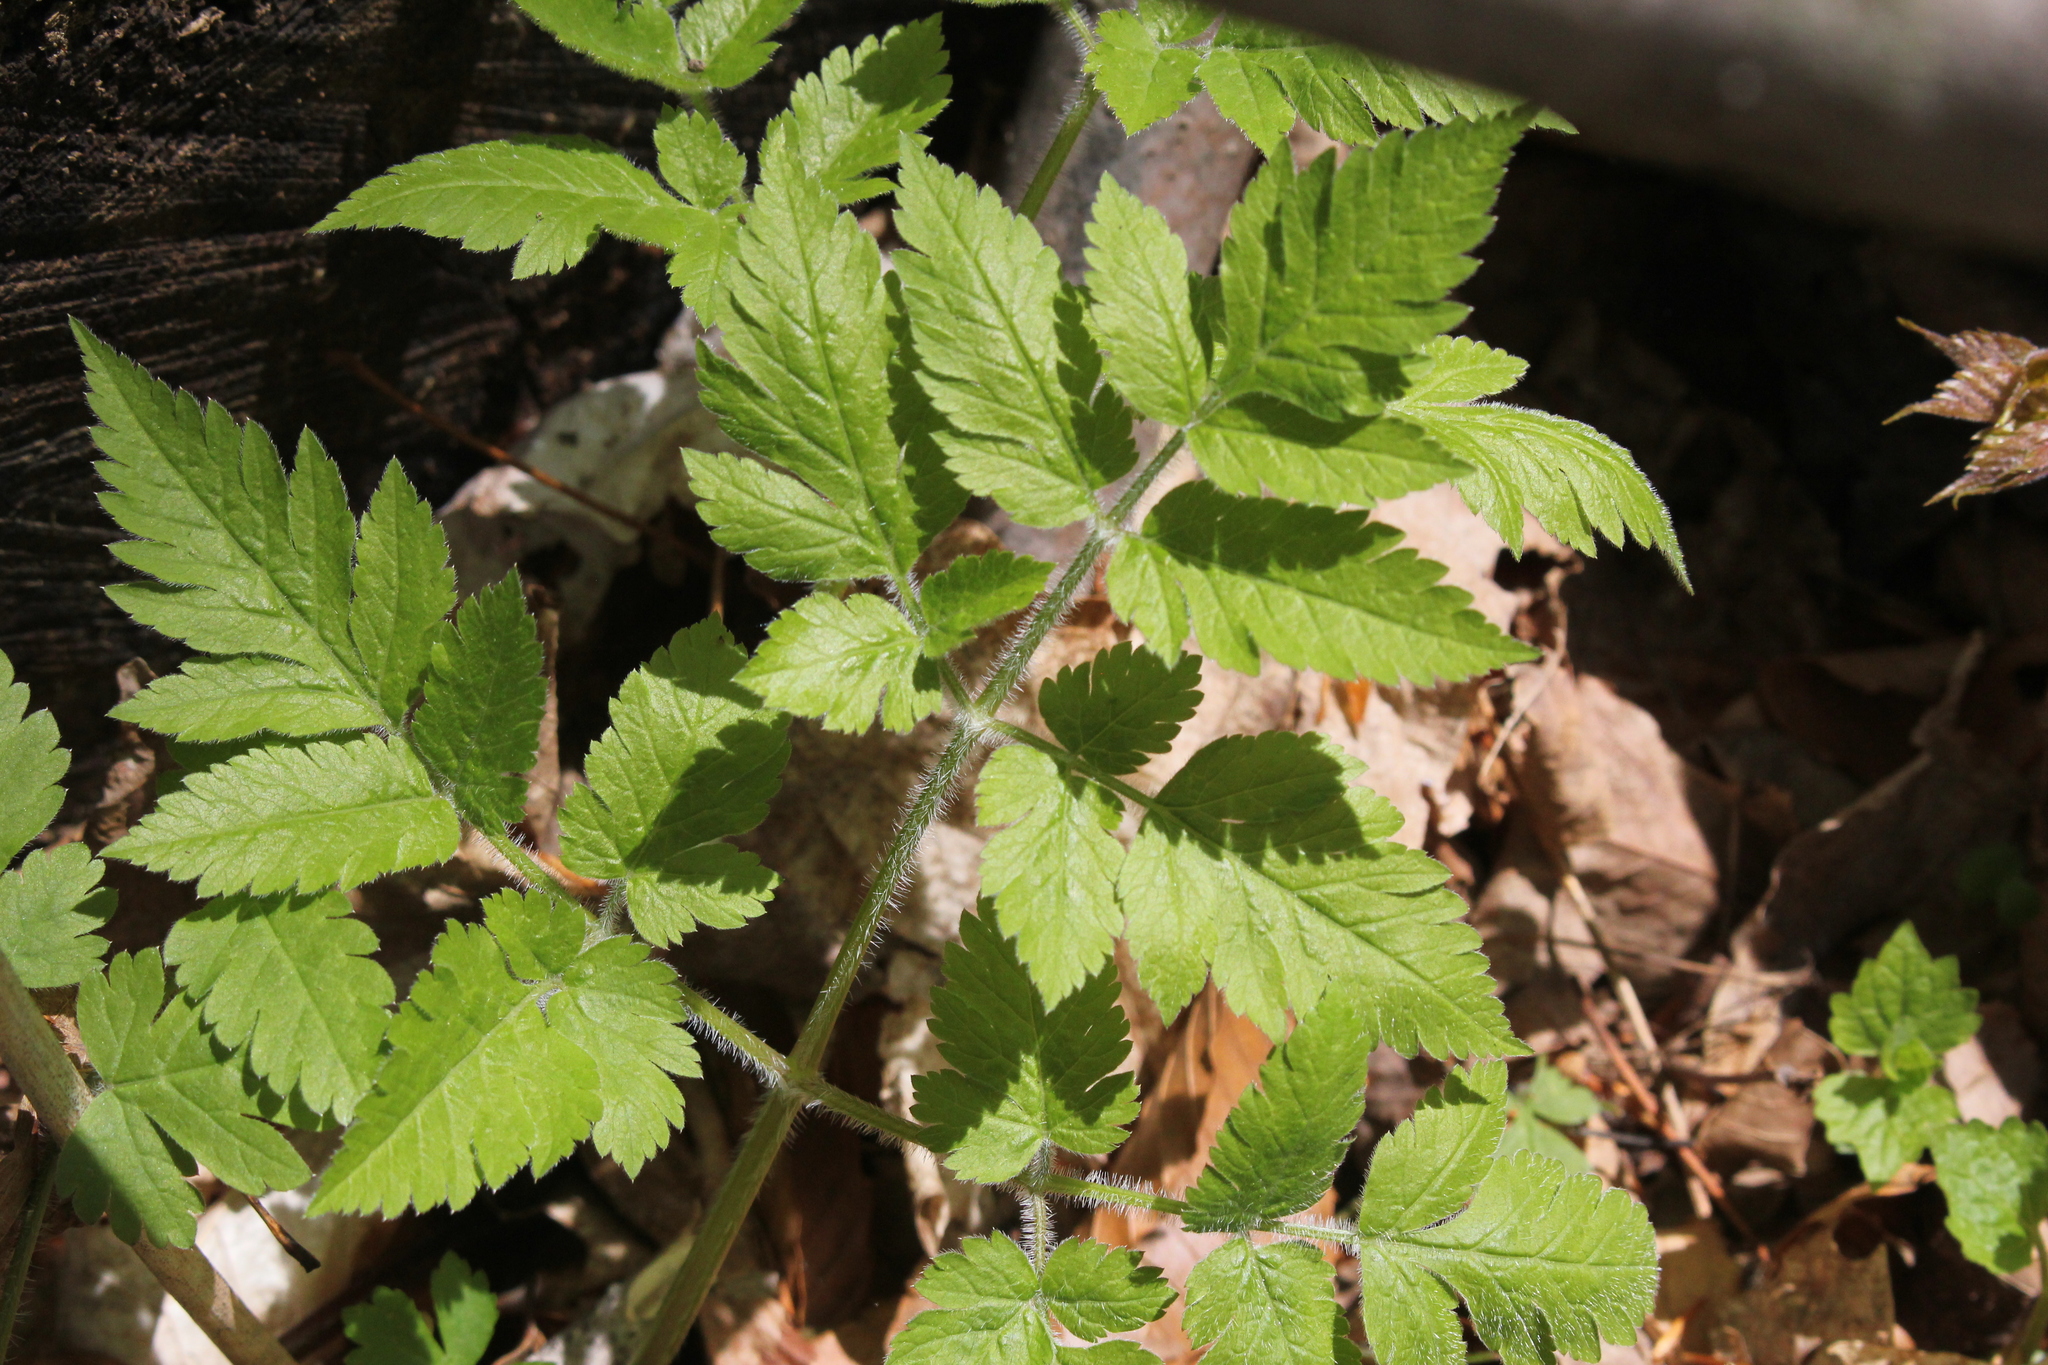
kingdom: Plantae
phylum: Tracheophyta
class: Magnoliopsida
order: Apiales
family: Apiaceae
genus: Osmorhiza
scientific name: Osmorhiza claytonii
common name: Hairy sweet cicely
